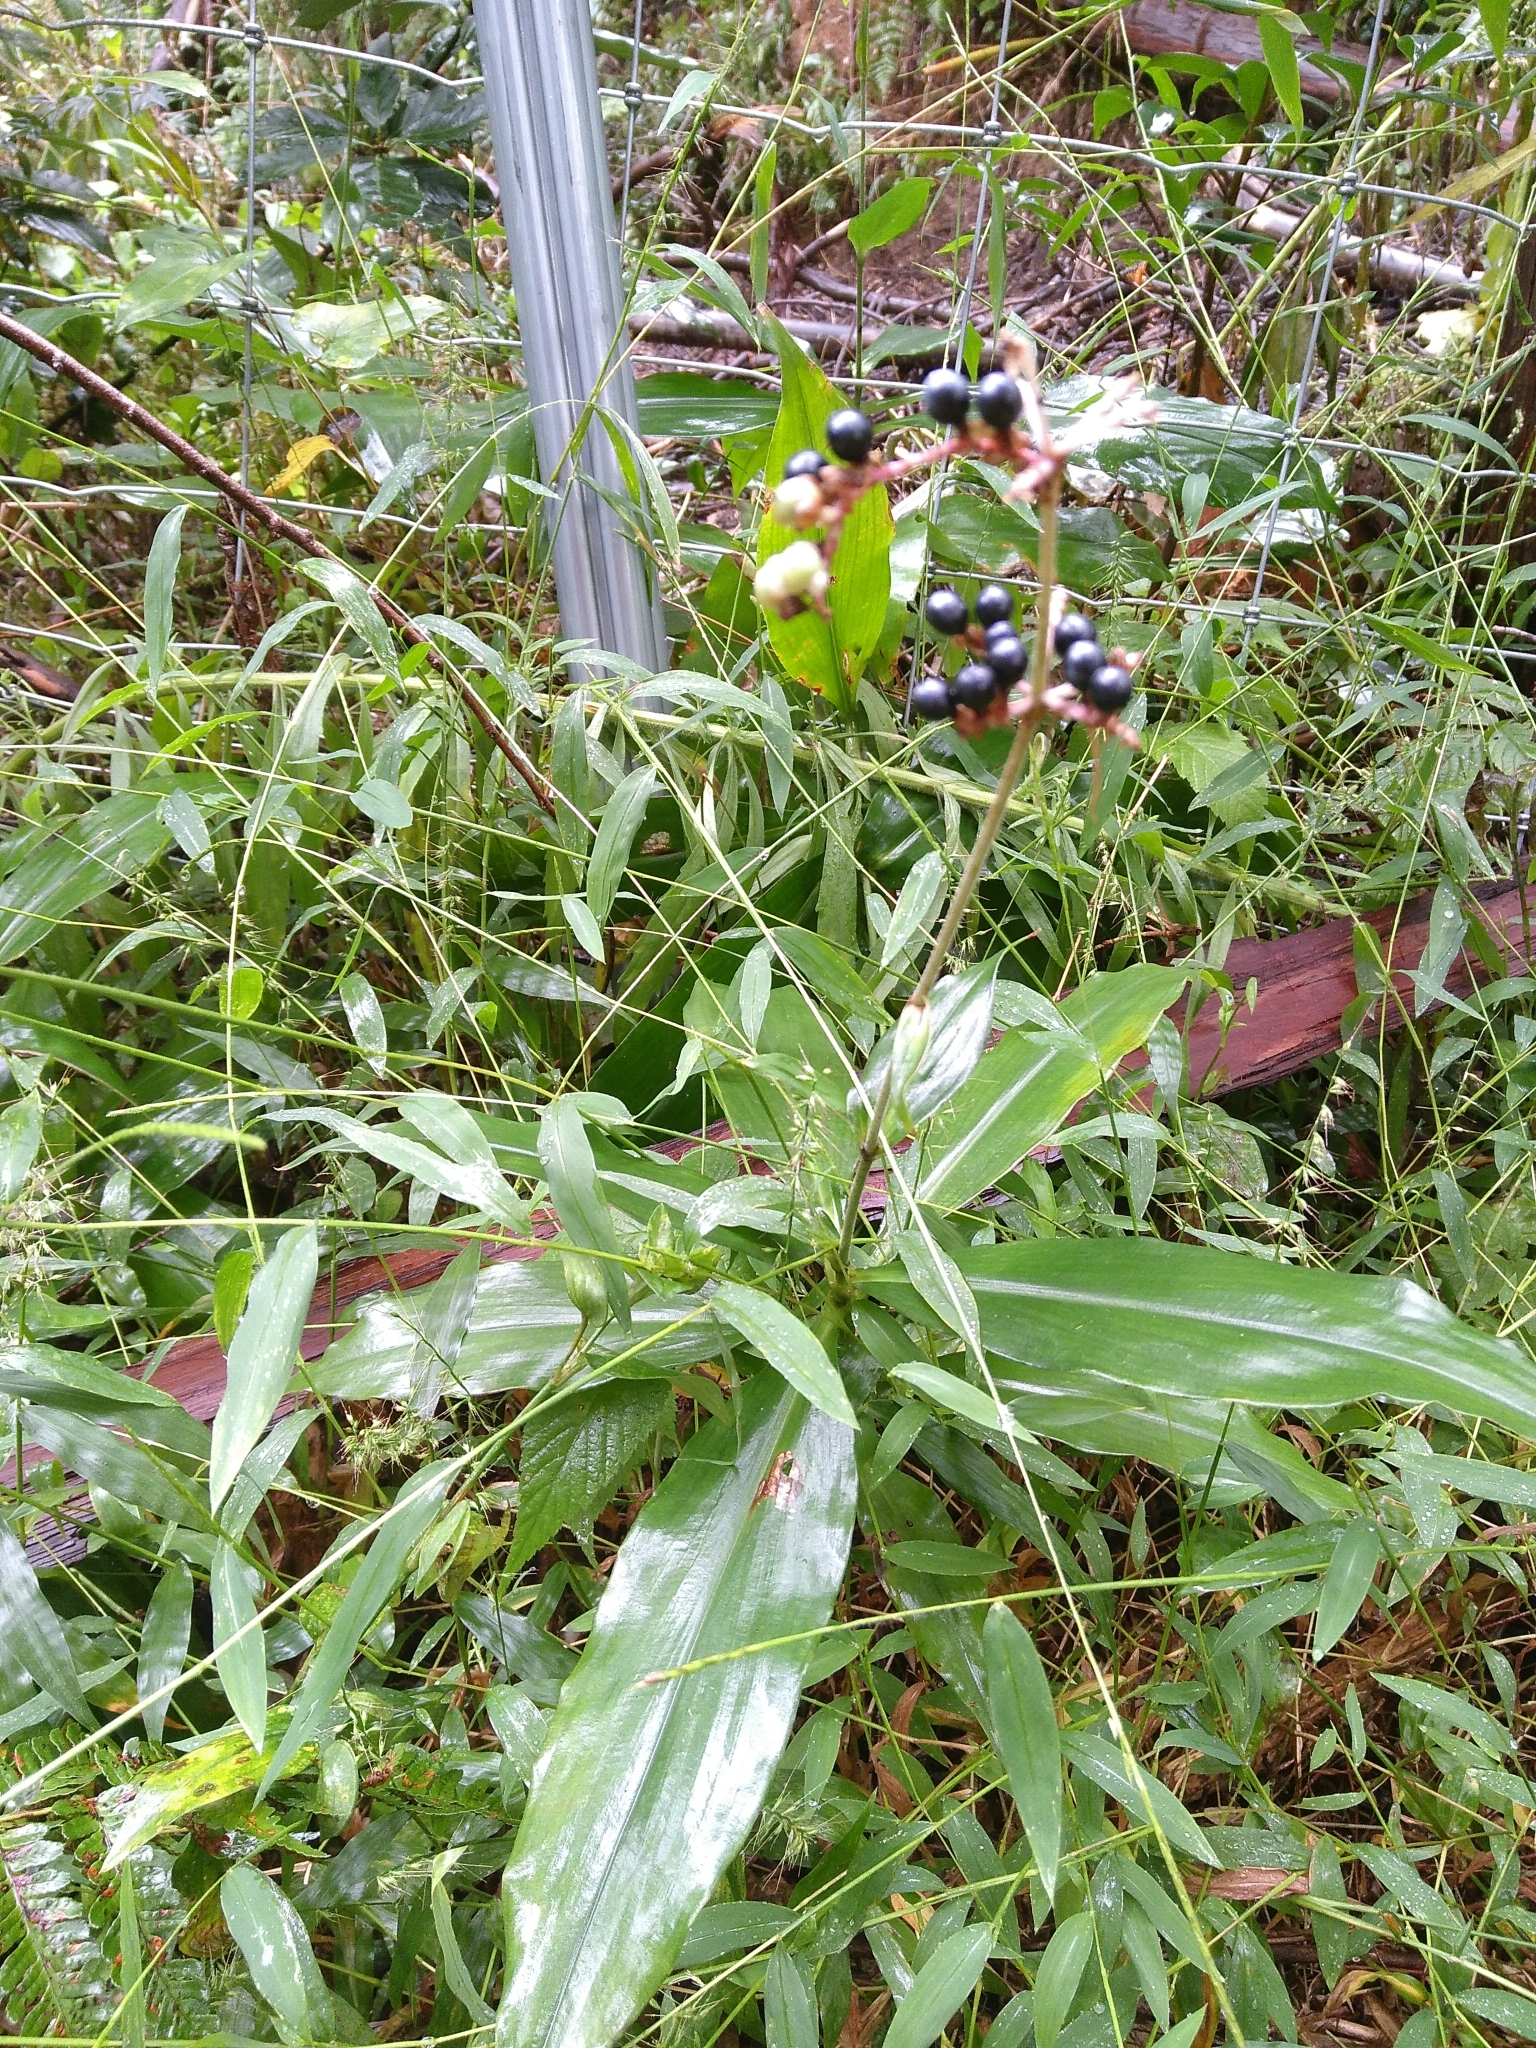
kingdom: Plantae
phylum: Tracheophyta
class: Liliopsida
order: Commelinales
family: Commelinaceae
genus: Pollia
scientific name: Pollia japonica
